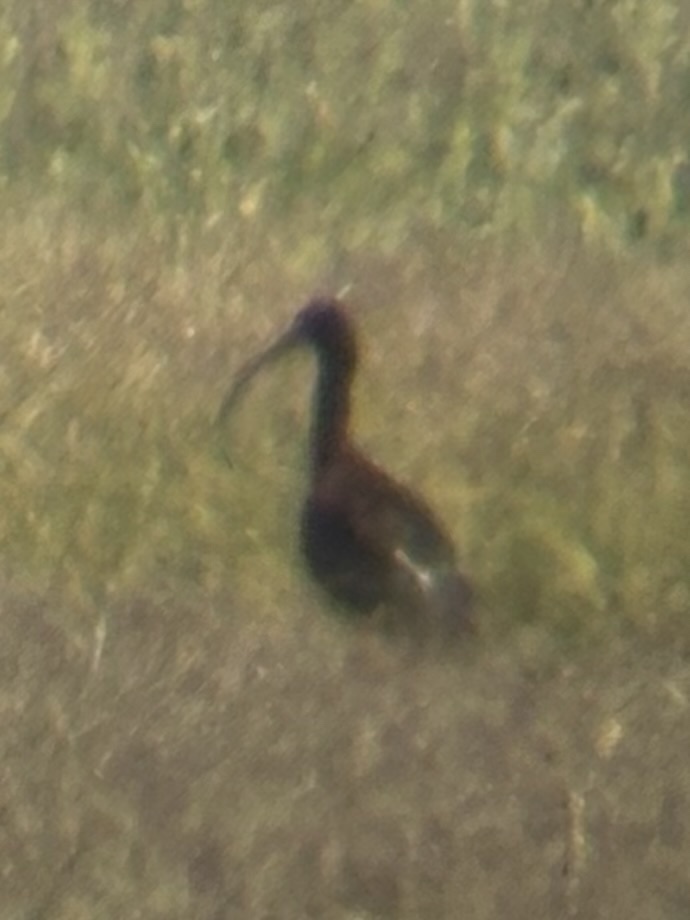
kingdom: Animalia
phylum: Chordata
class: Aves
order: Pelecaniformes
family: Threskiornithidae
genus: Plegadis
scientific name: Plegadis chihi
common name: White-faced ibis
